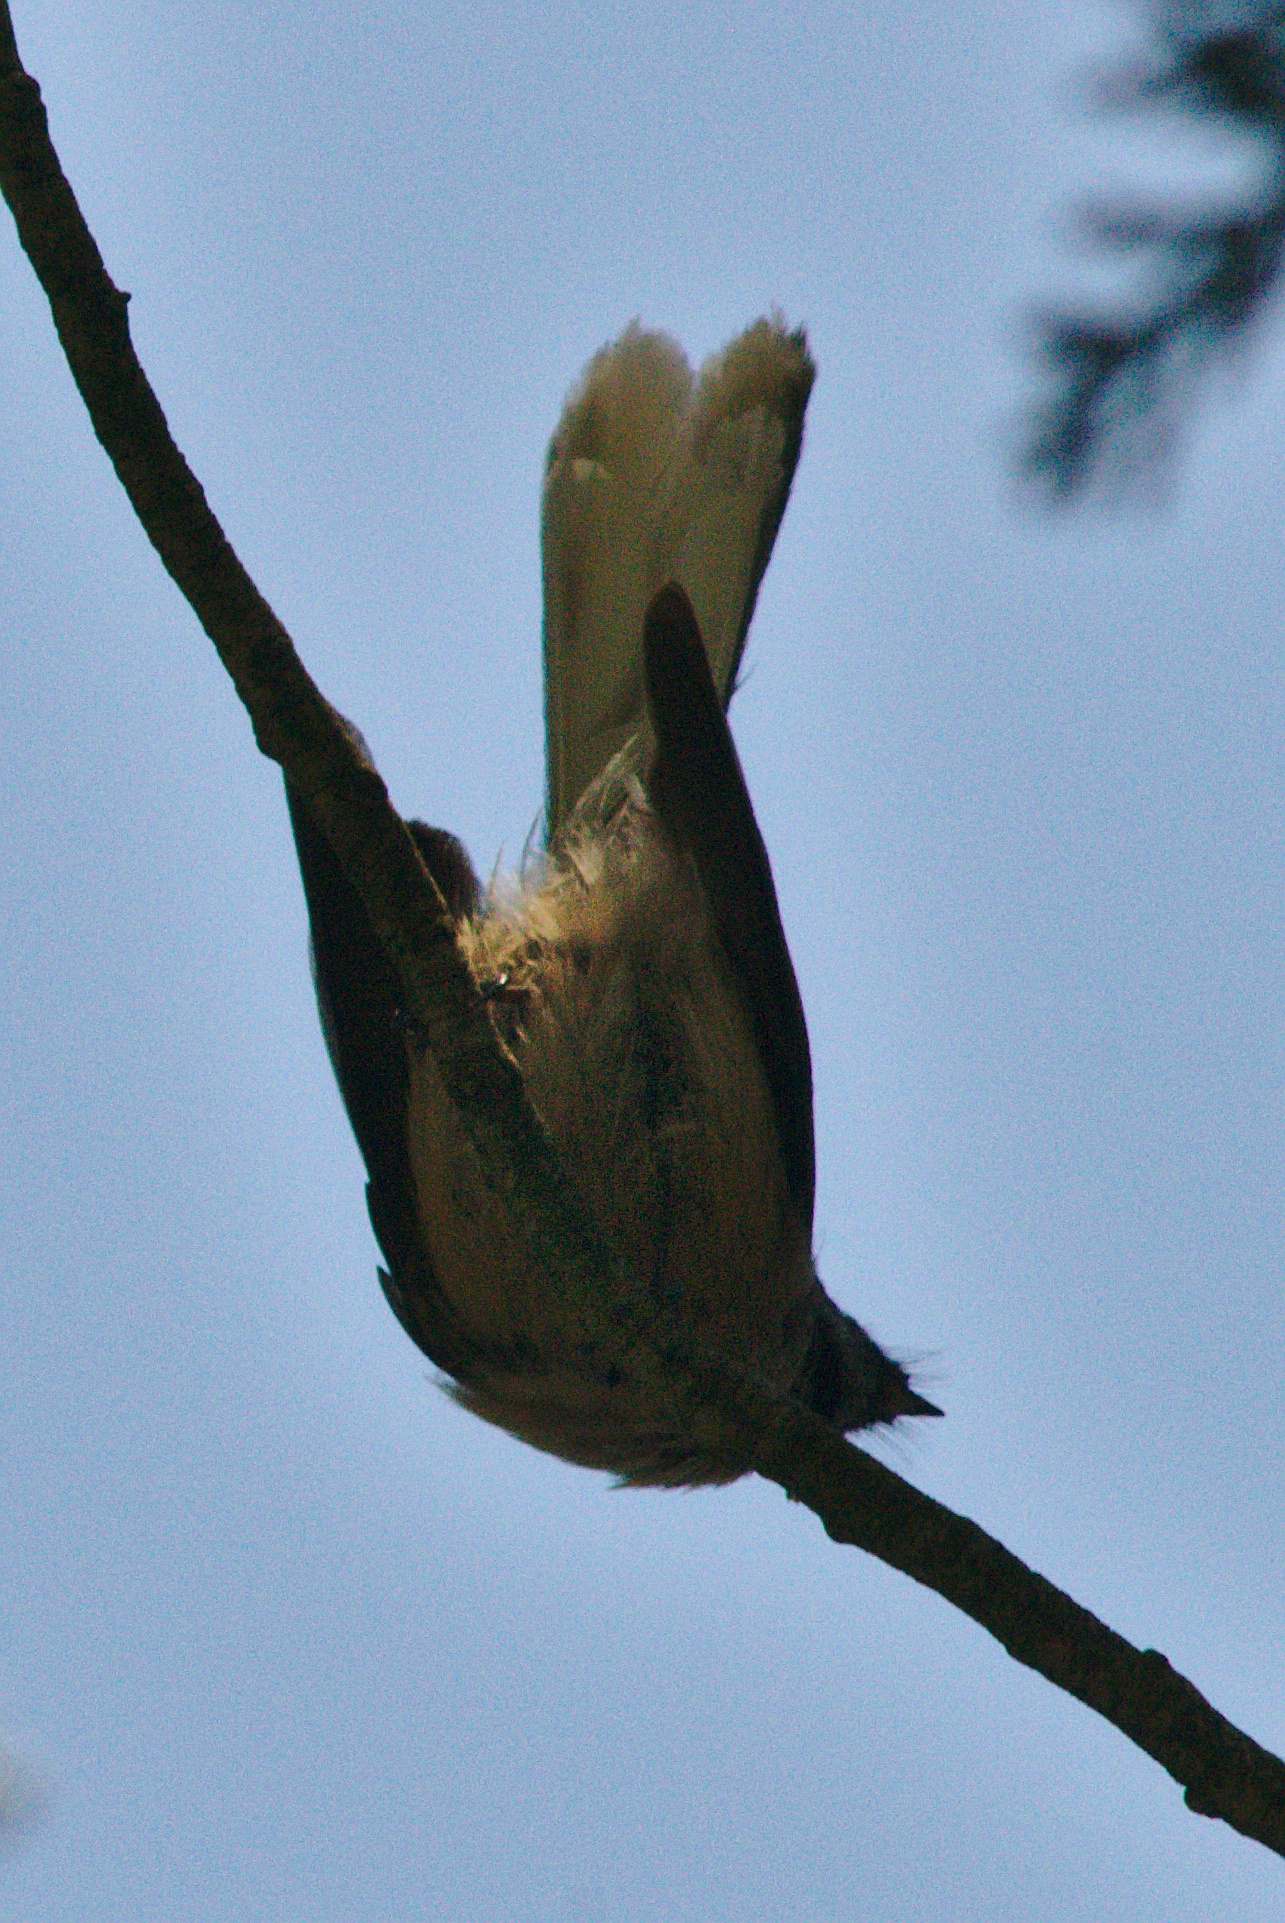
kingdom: Animalia
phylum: Chordata
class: Aves
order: Passeriformes
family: Rhipiduridae
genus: Rhipidura
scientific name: Rhipidura fuliginosa
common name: New zealand fantail
